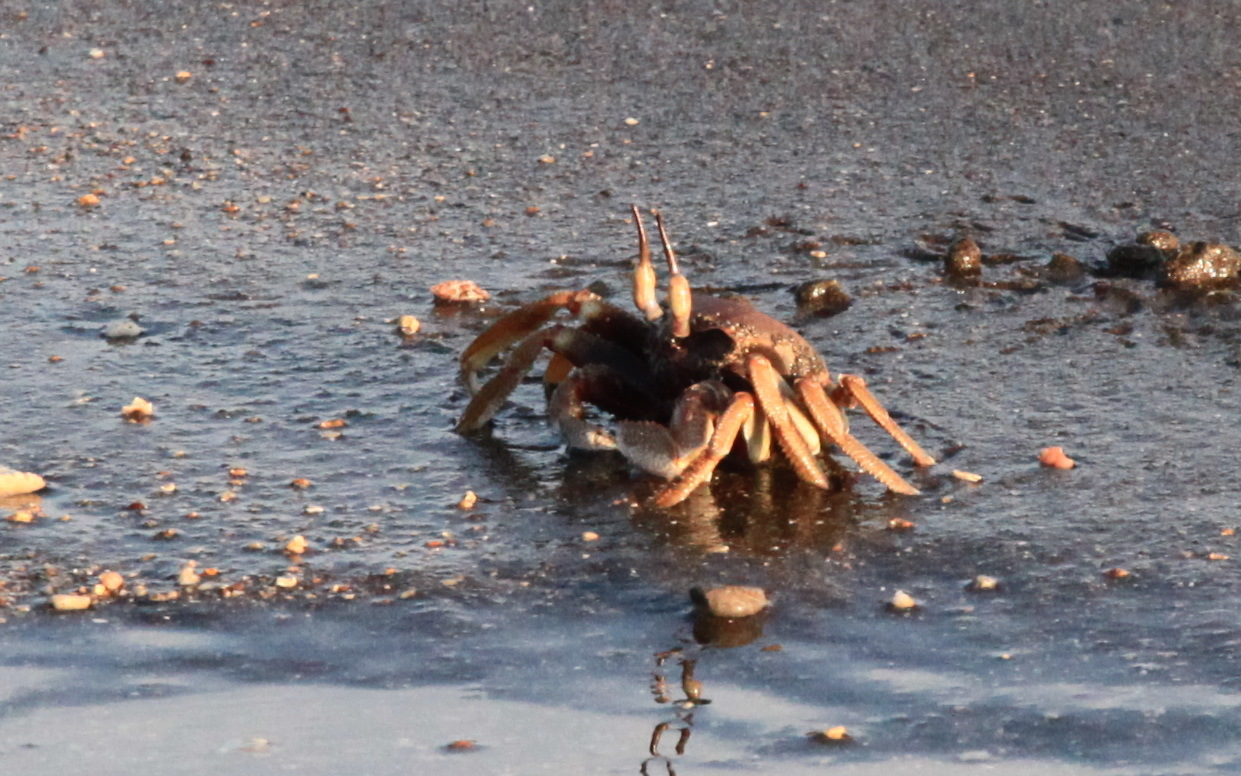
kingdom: Animalia
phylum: Arthropoda
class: Malacostraca
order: Decapoda
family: Ocypodidae
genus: Ocypode
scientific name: Ocypode ceratophthalmus
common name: Indo-pacific ghost crab
